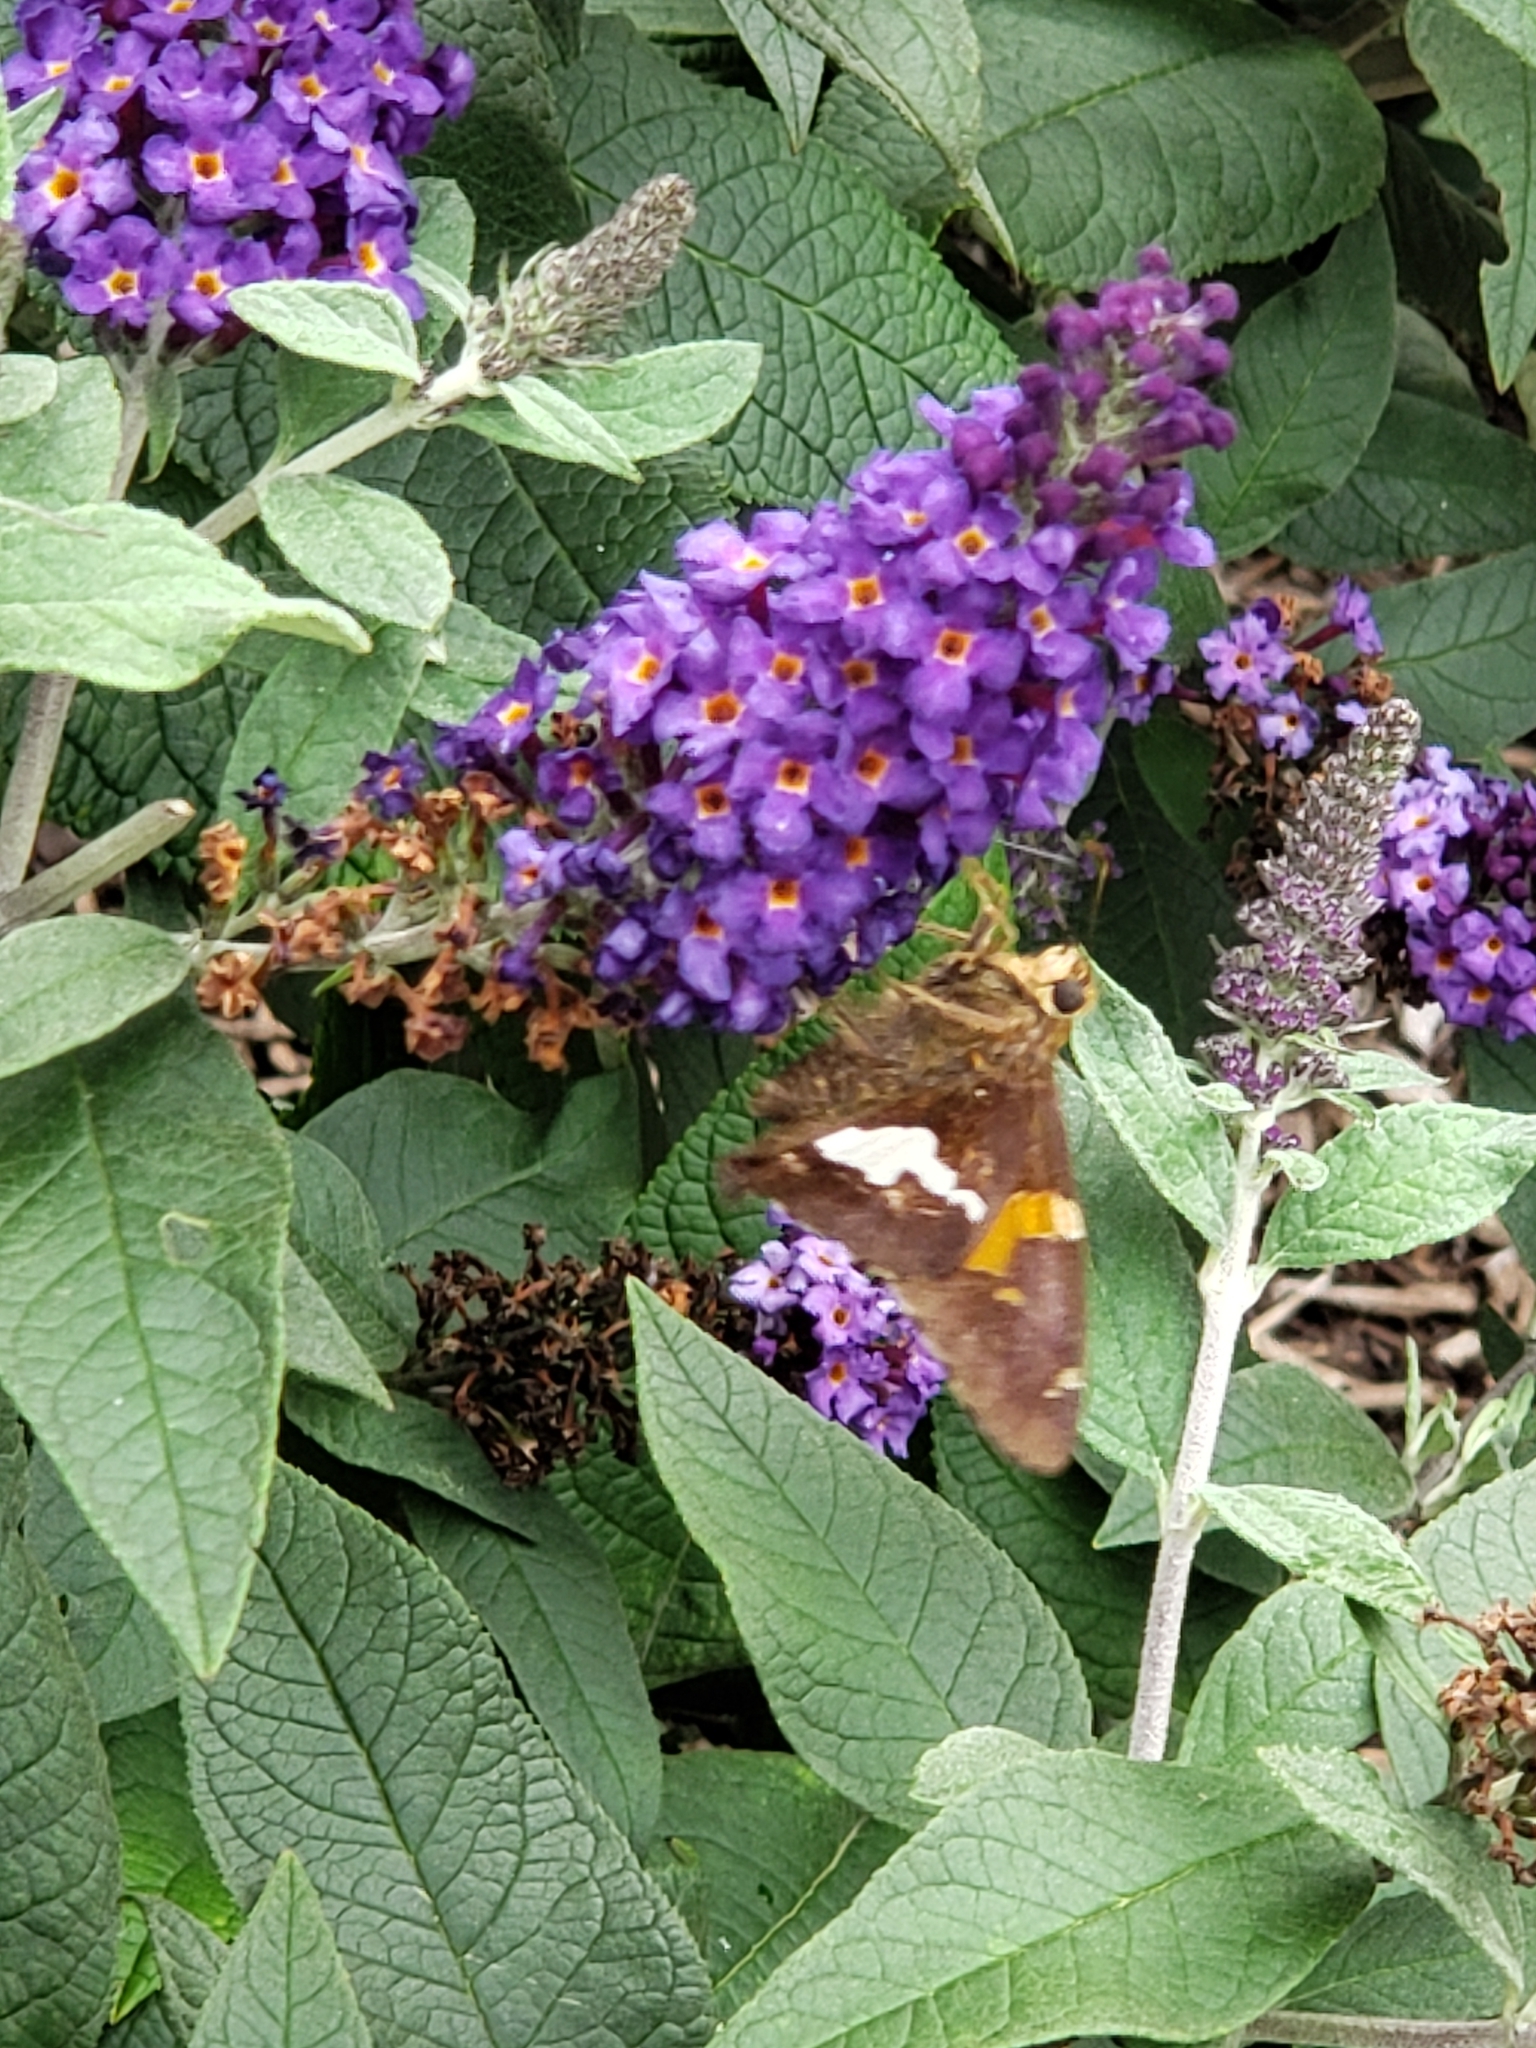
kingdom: Animalia
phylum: Arthropoda
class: Insecta
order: Lepidoptera
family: Hesperiidae
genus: Epargyreus
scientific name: Epargyreus clarus
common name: Silver-spotted skipper
